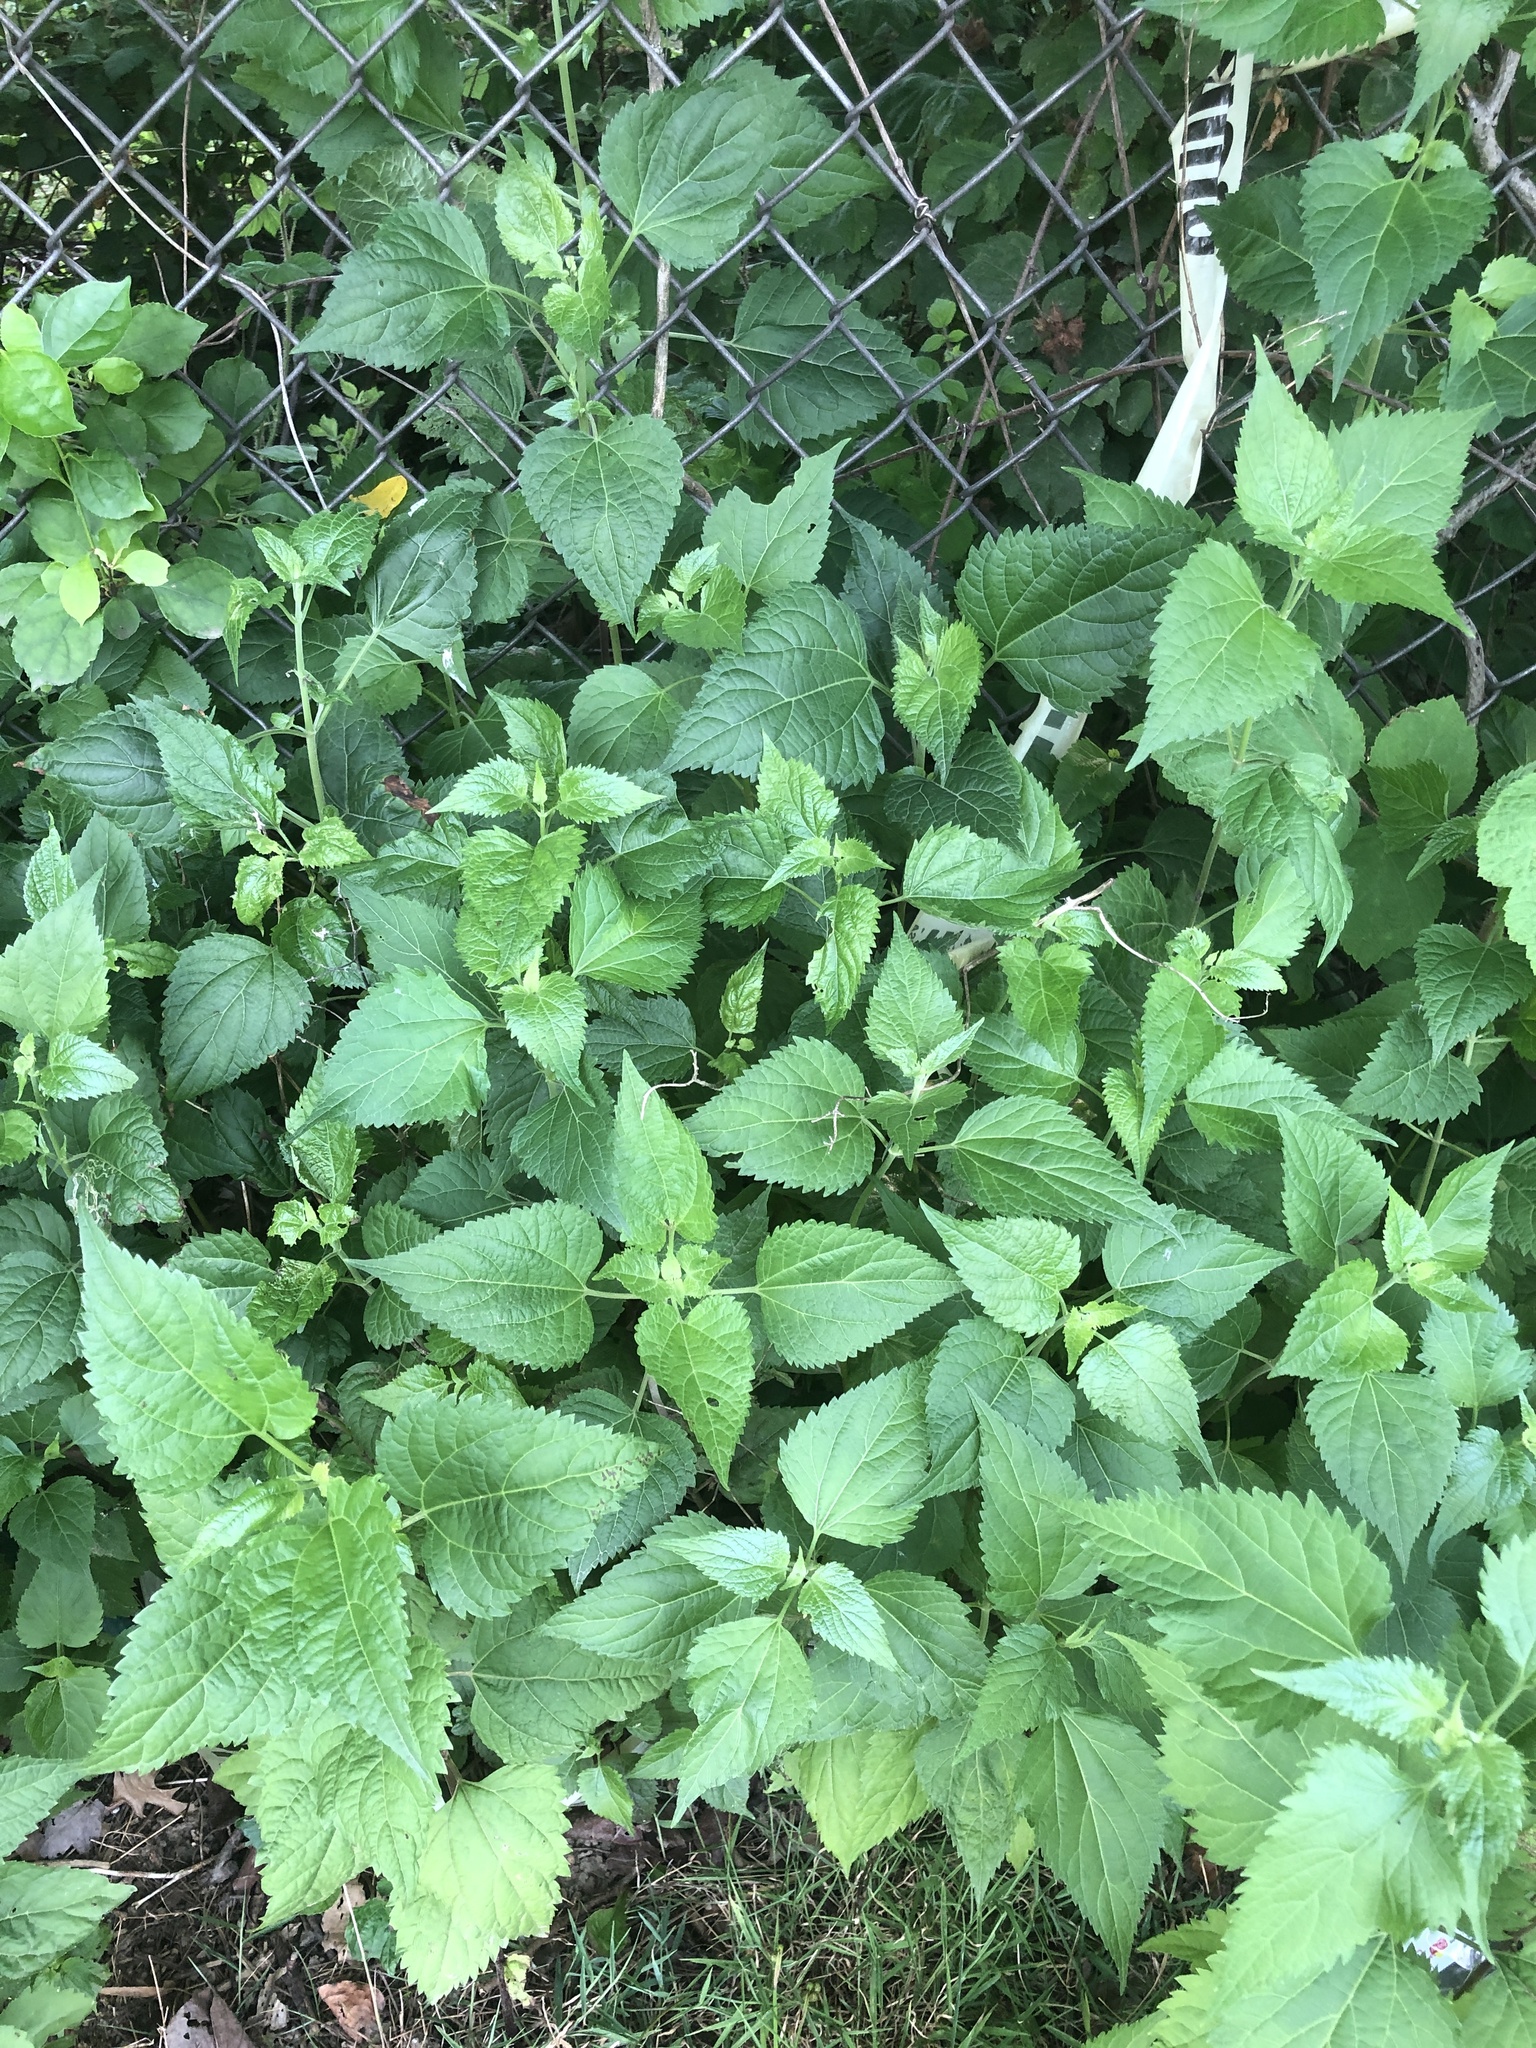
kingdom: Plantae
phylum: Tracheophyta
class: Magnoliopsida
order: Asterales
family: Asteraceae
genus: Ageratina
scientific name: Ageratina altissima
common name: White snakeroot
